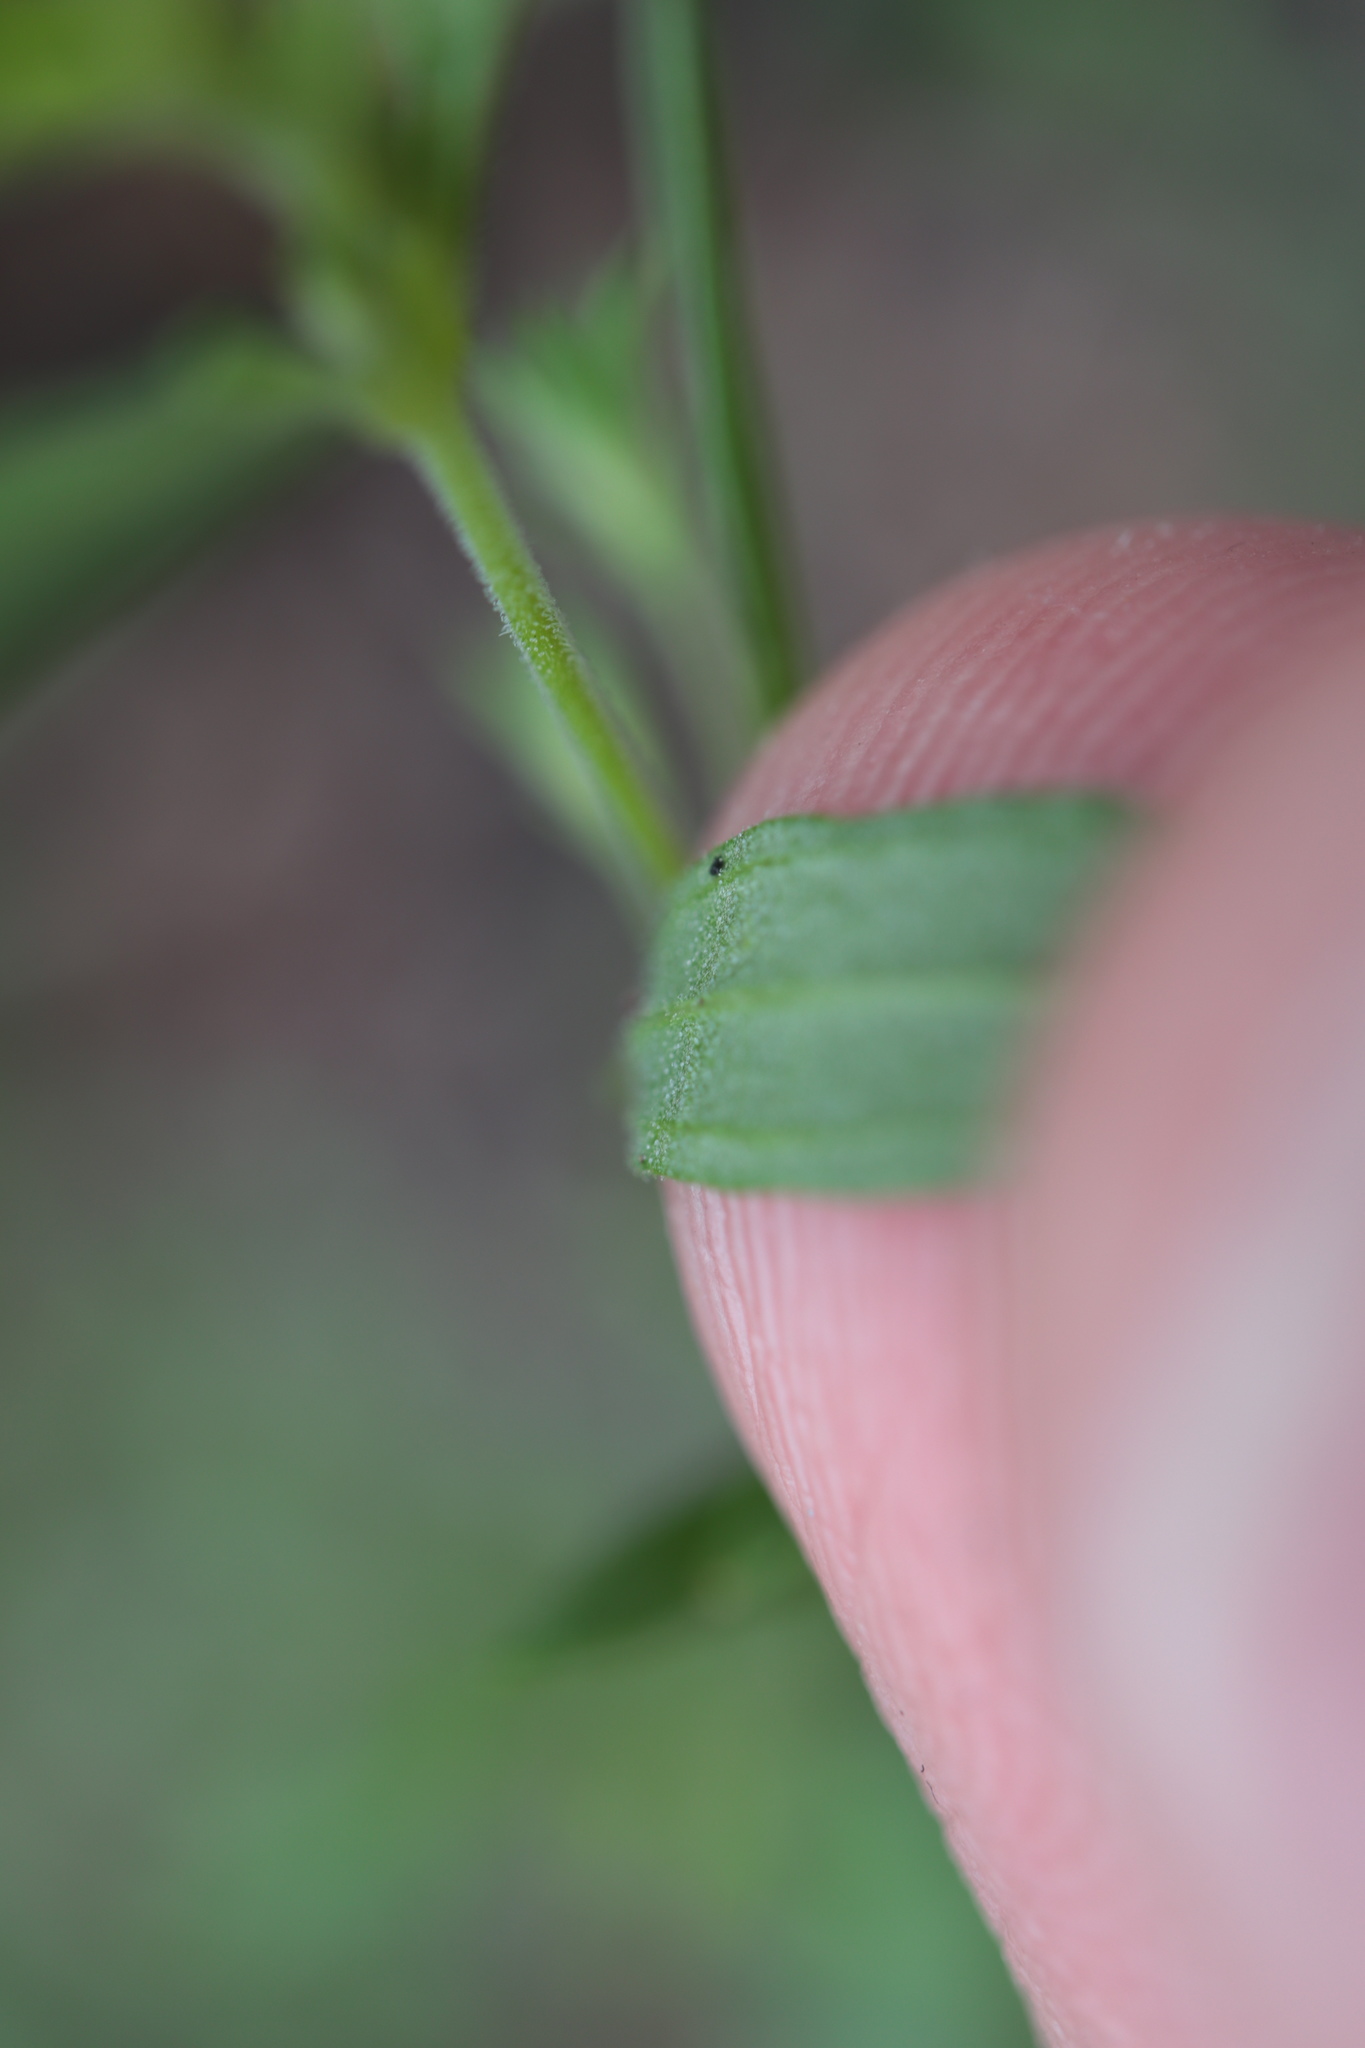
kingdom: Plantae
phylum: Tracheophyta
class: Magnoliopsida
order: Lamiales
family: Lamiaceae
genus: Trichostema
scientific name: Trichostema brachiatum
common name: False pennyroyal
